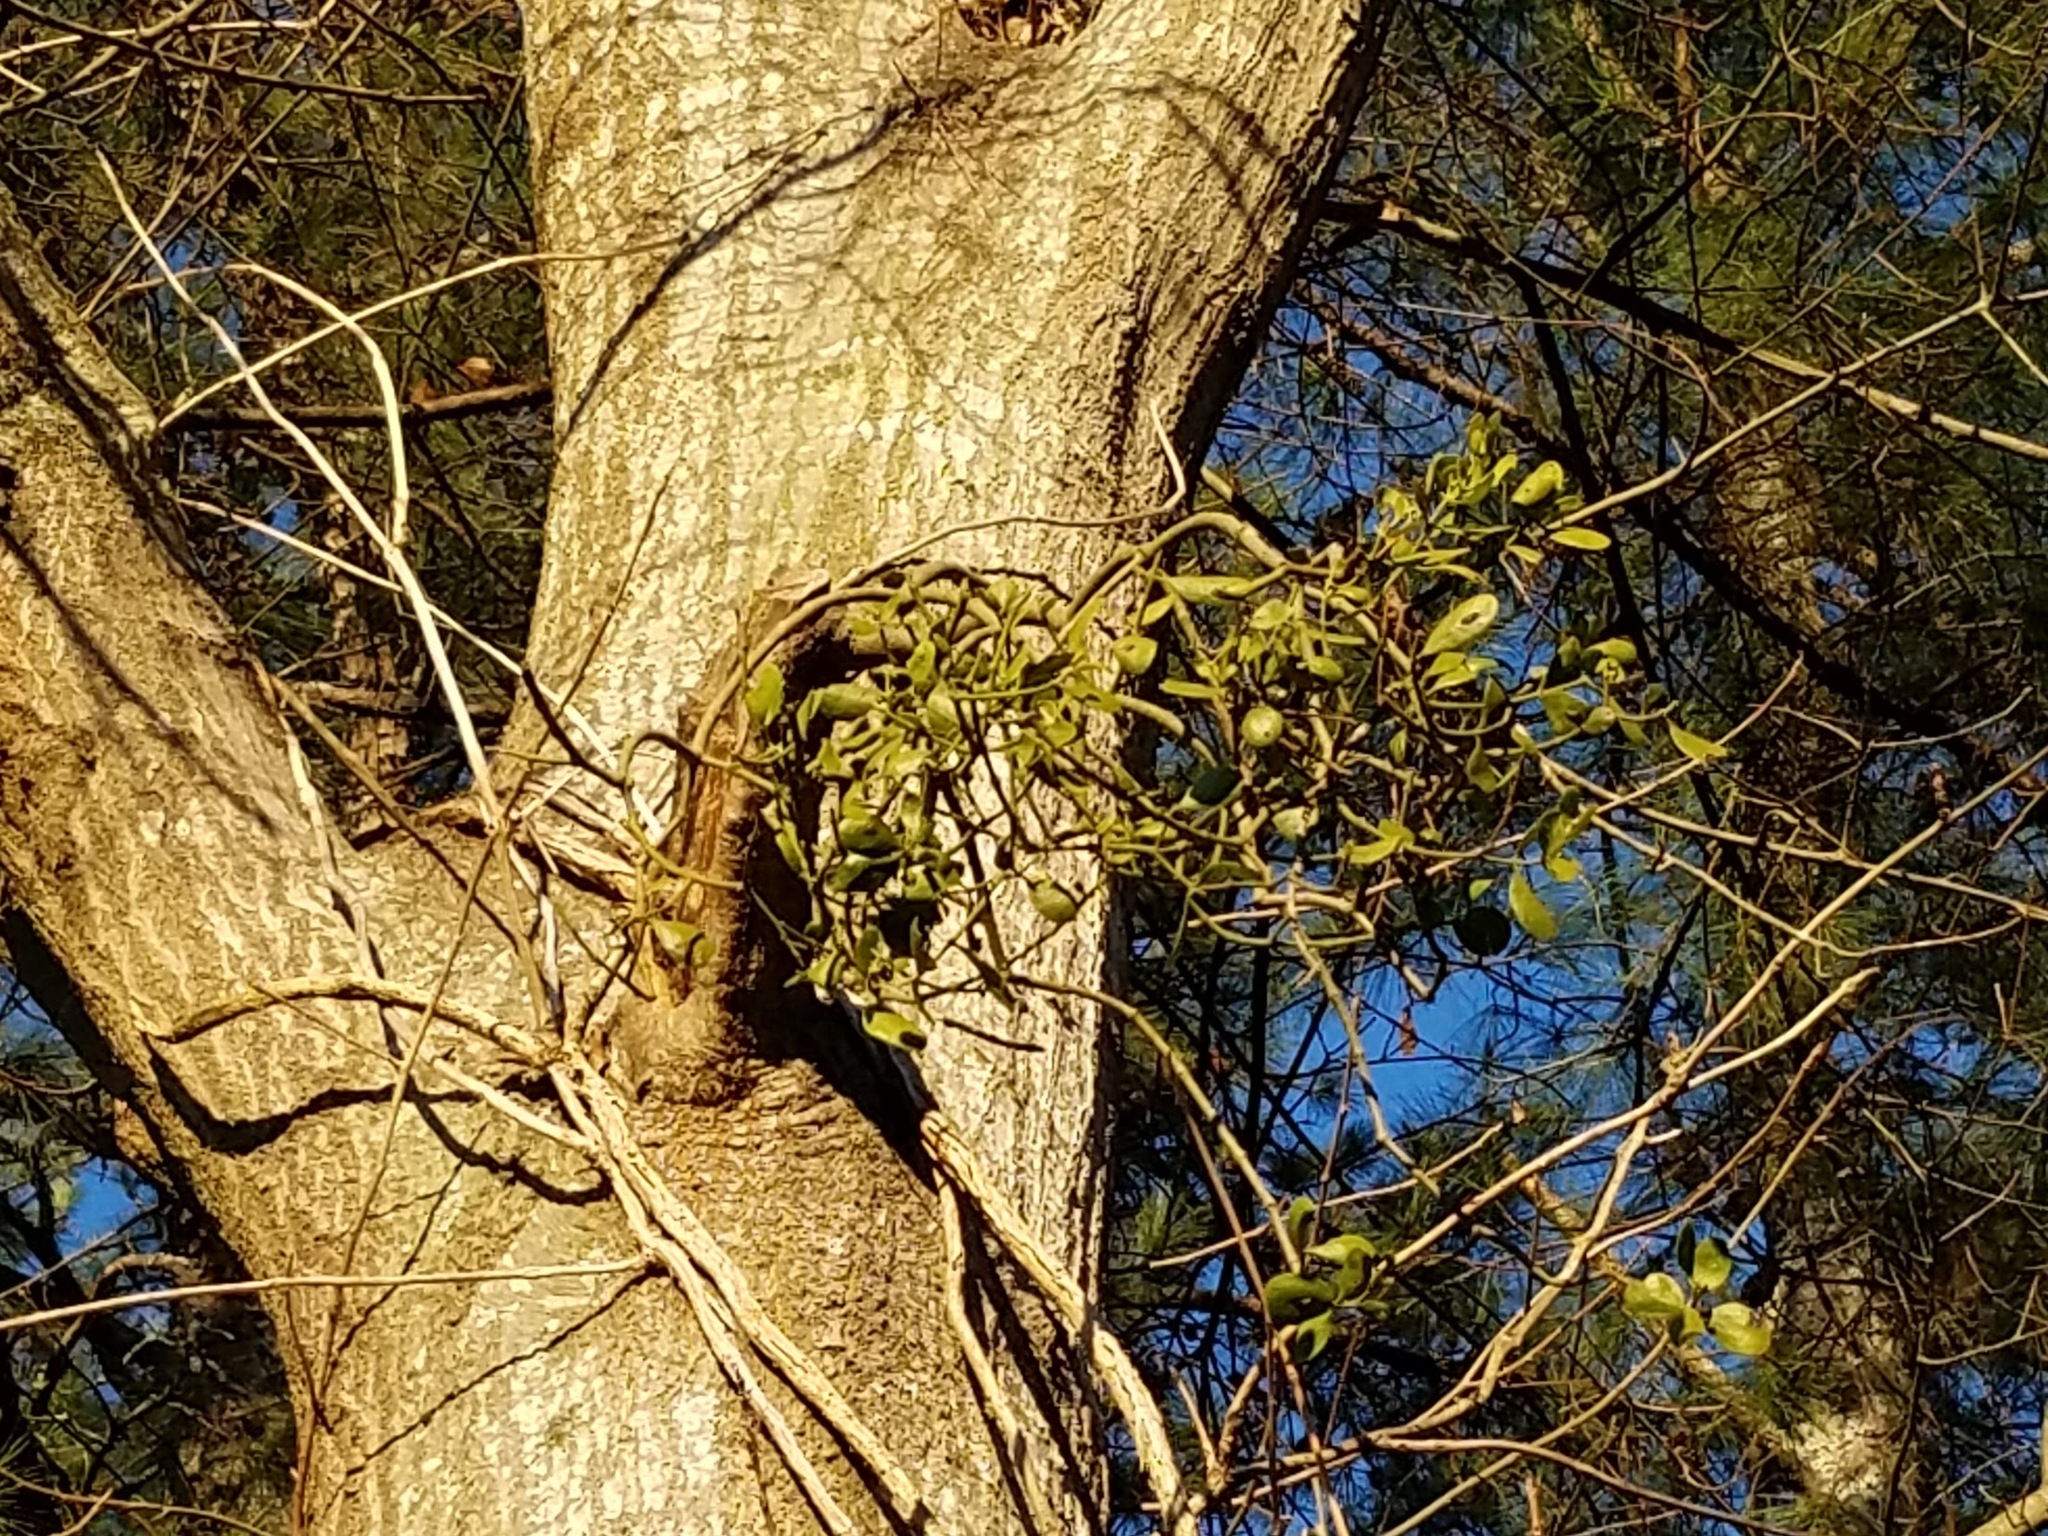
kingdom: Plantae
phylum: Tracheophyta
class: Magnoliopsida
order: Santalales
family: Viscaceae
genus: Phoradendron
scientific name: Phoradendron leucarpum
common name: Pacific mistletoe
